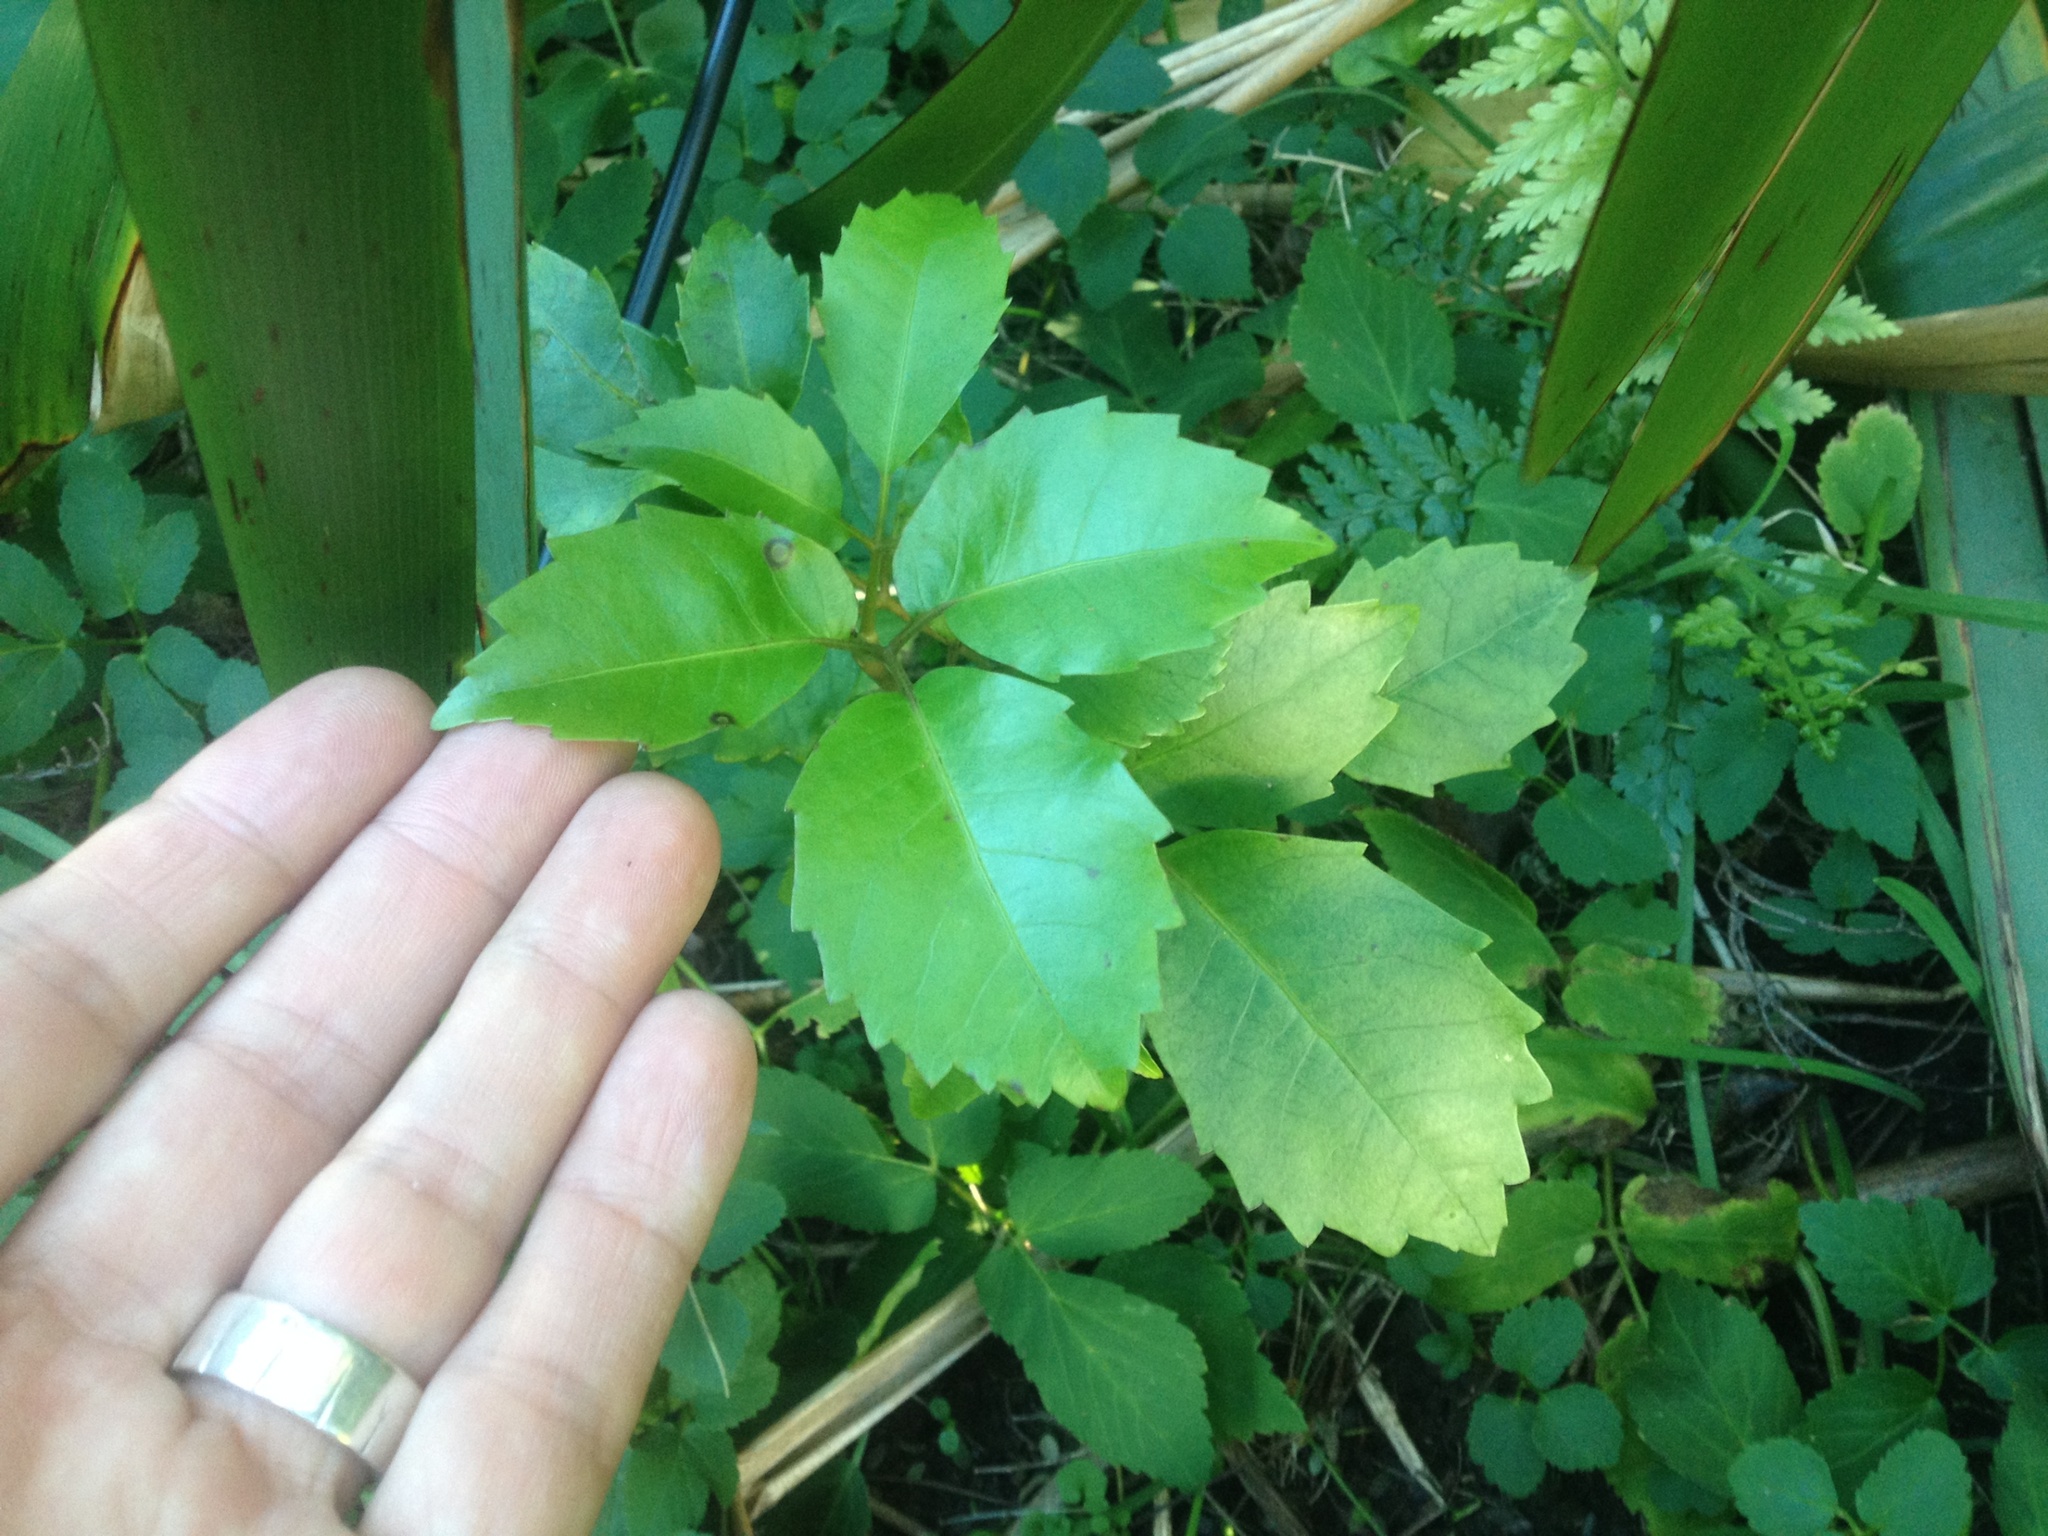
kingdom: Plantae
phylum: Tracheophyta
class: Magnoliopsida
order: Apiales
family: Araliaceae
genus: Neopanax
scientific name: Neopanax arboreus
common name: Five-fingers
